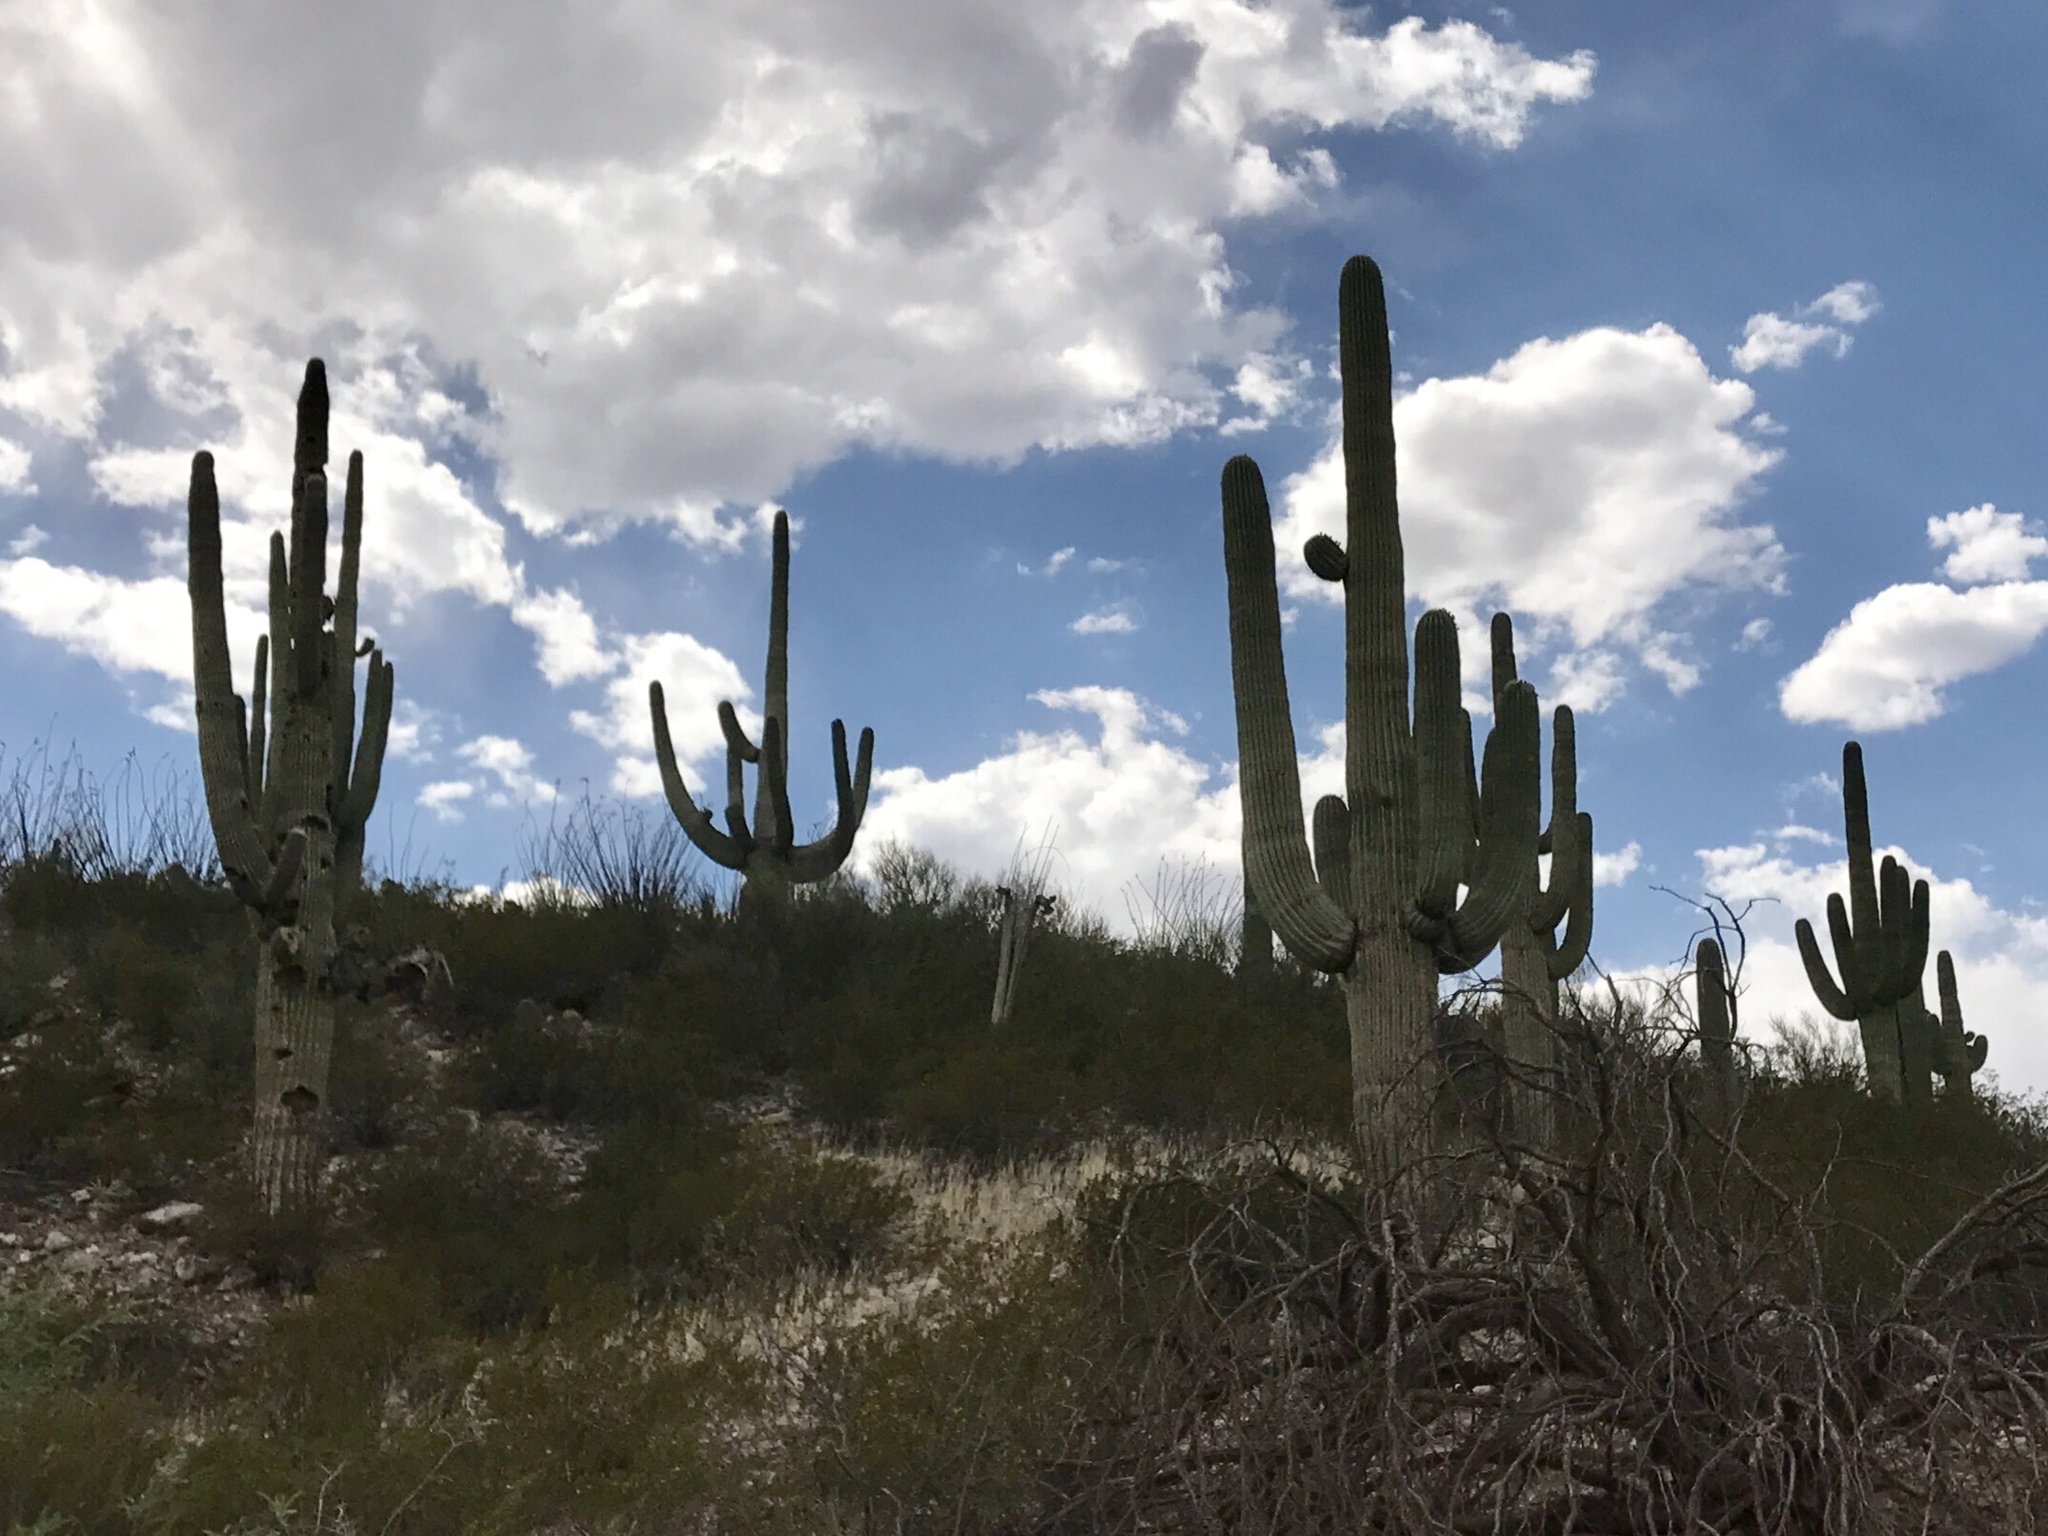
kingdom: Plantae
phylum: Tracheophyta
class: Magnoliopsida
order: Caryophyllales
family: Cactaceae
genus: Carnegiea
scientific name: Carnegiea gigantea
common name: Saguaro
